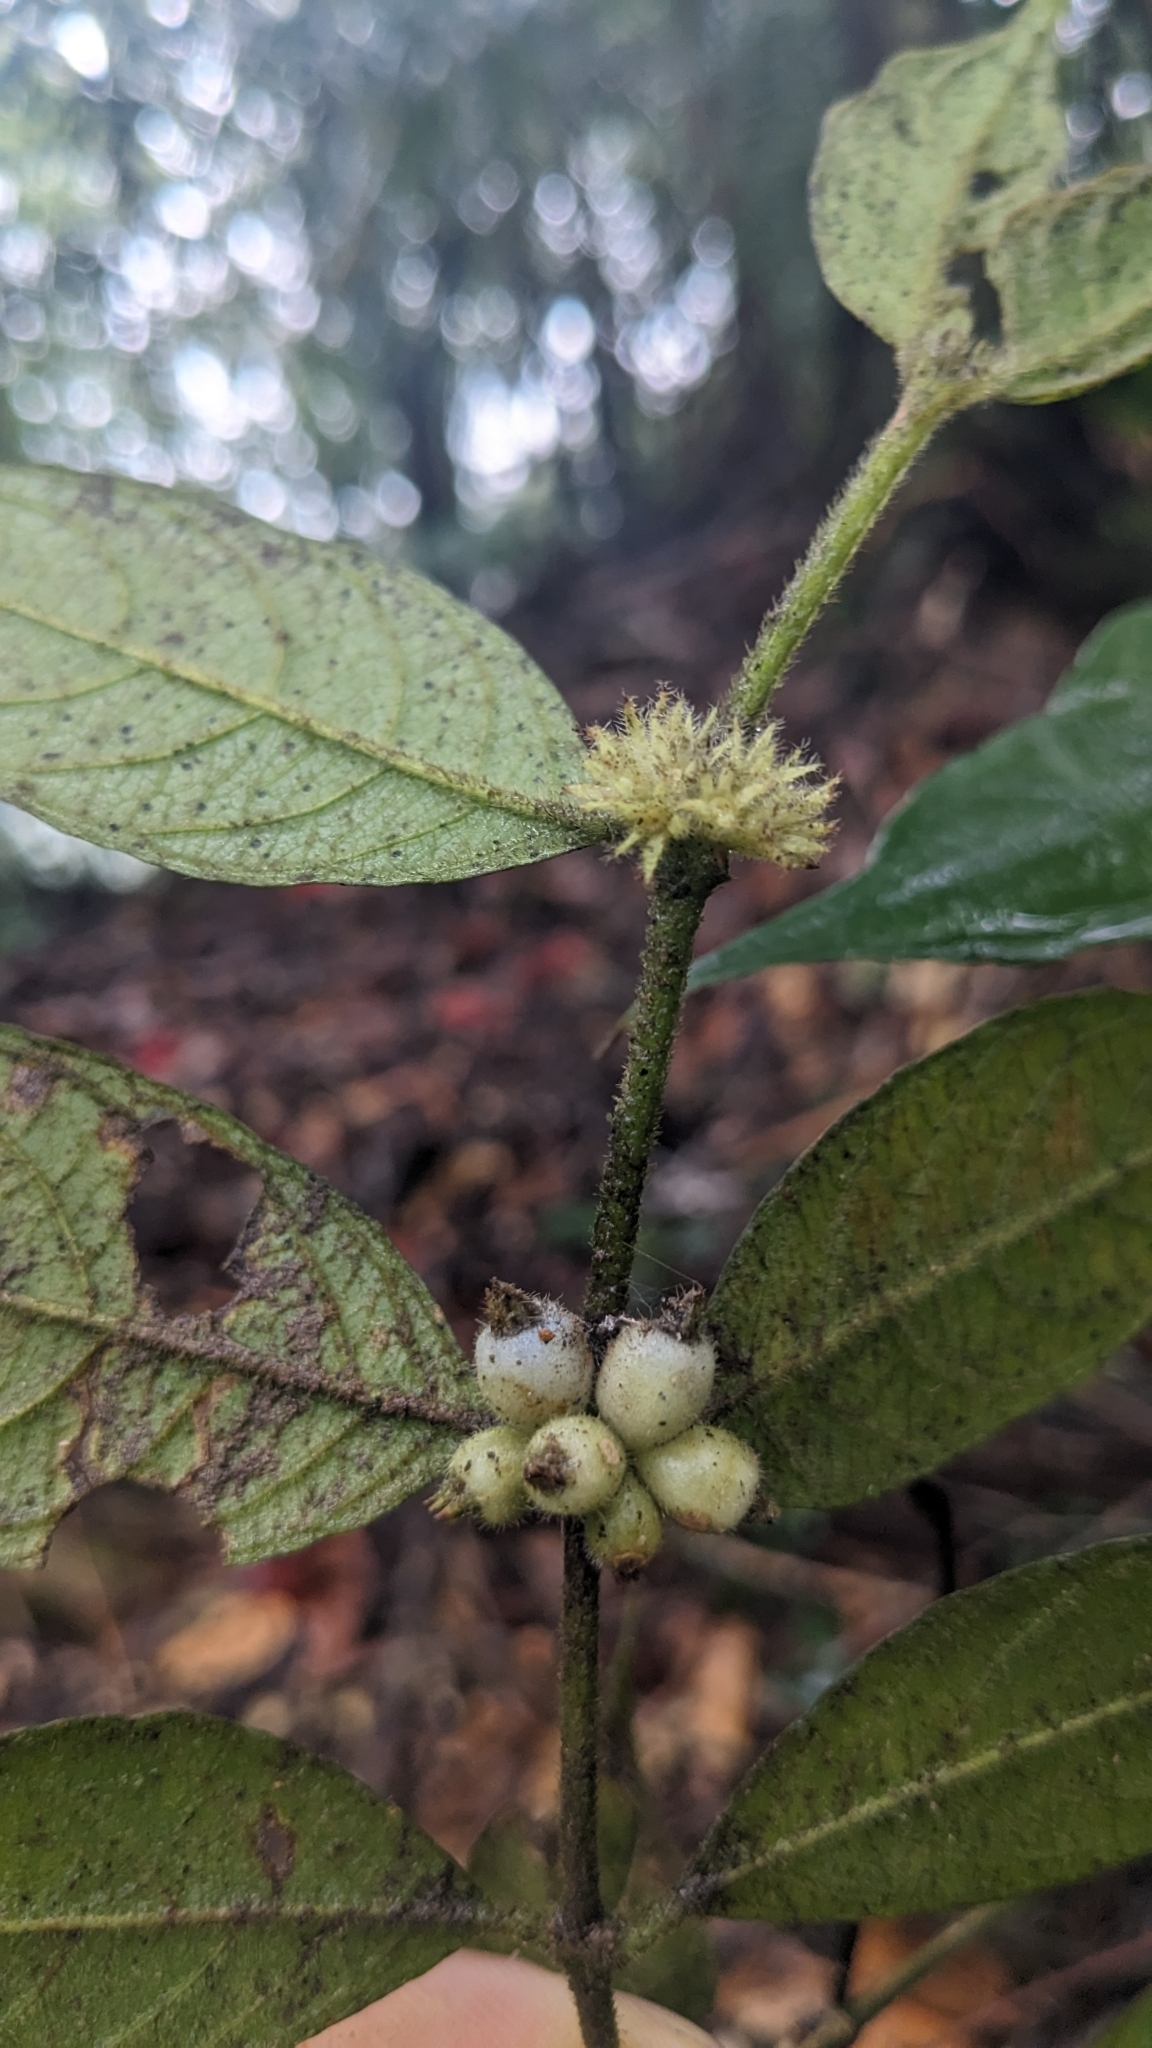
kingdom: Plantae
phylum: Tracheophyta
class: Magnoliopsida
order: Gentianales
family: Rubiaceae
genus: Lasianthus
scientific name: Lasianthus curtisii
